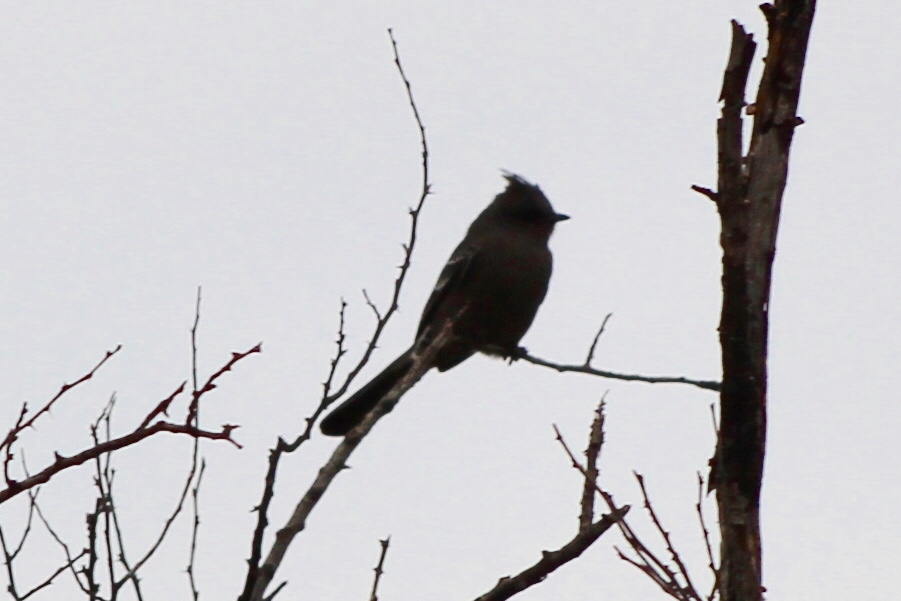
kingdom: Animalia
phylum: Chordata
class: Aves
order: Passeriformes
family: Ptilogonatidae
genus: Phainopepla
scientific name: Phainopepla nitens
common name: Phainopepla
